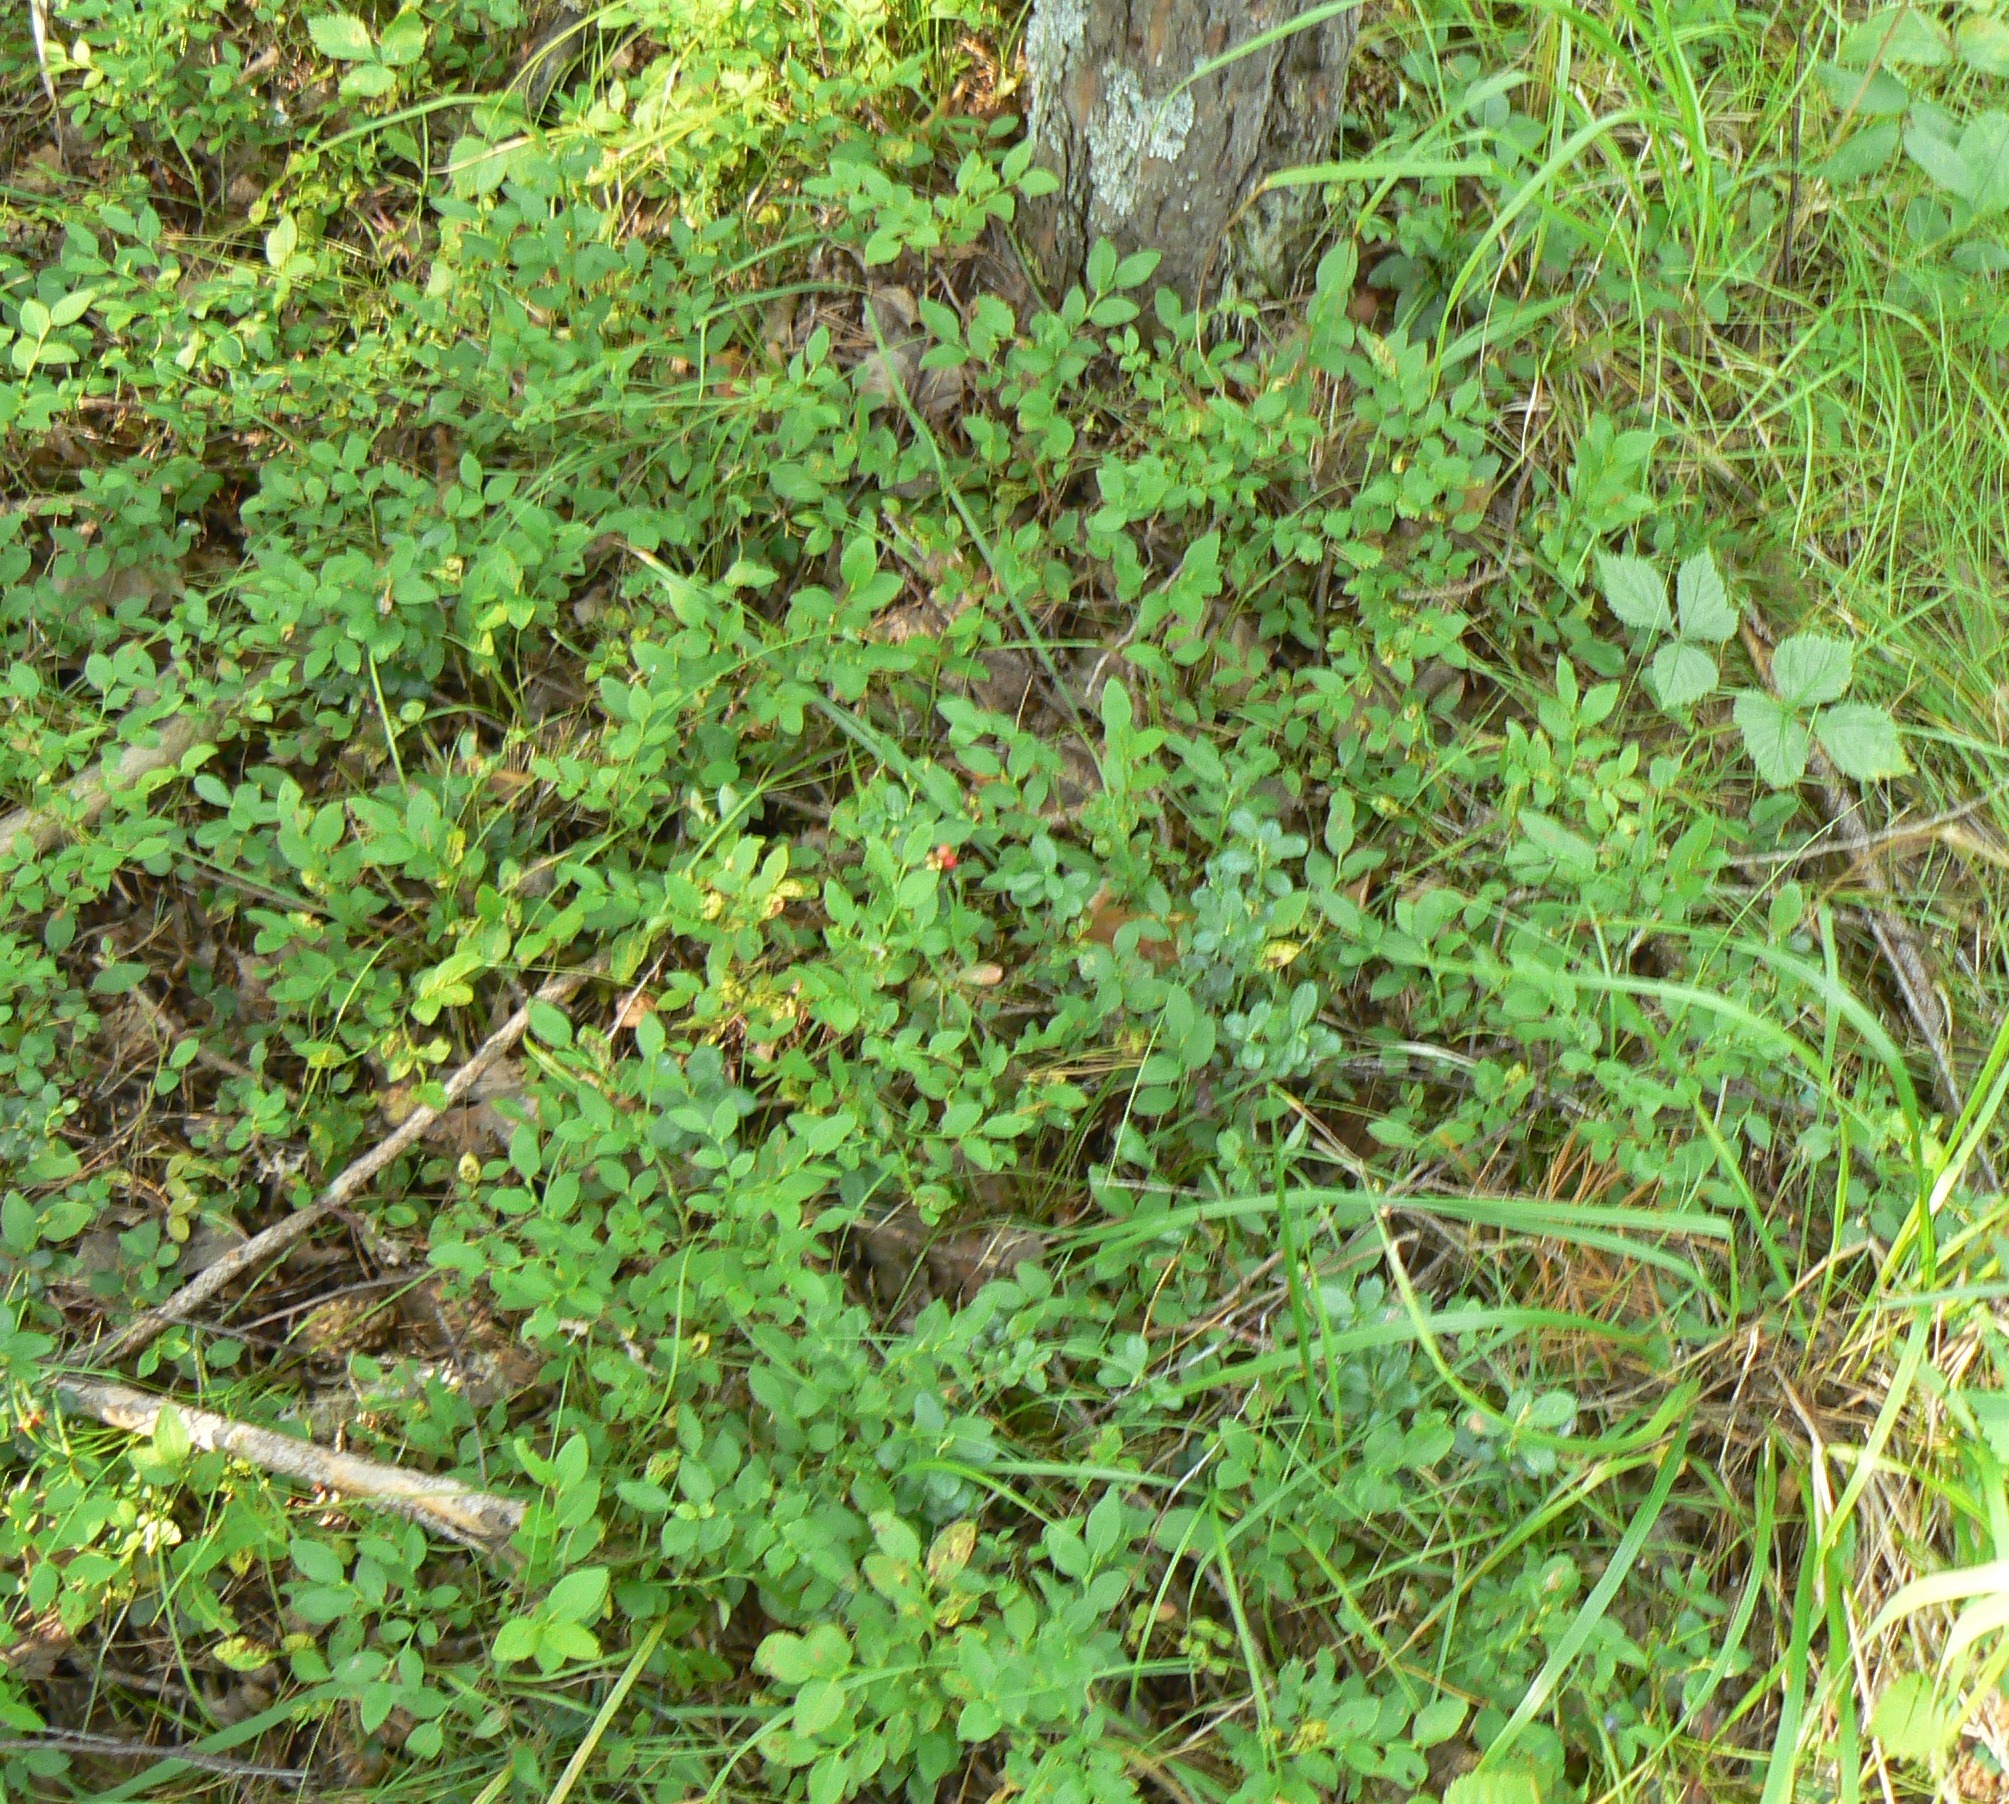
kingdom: Plantae
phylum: Tracheophyta
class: Magnoliopsida
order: Ericales
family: Ericaceae
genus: Vaccinium
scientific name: Vaccinium vitis-idaea
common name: Cowberry
